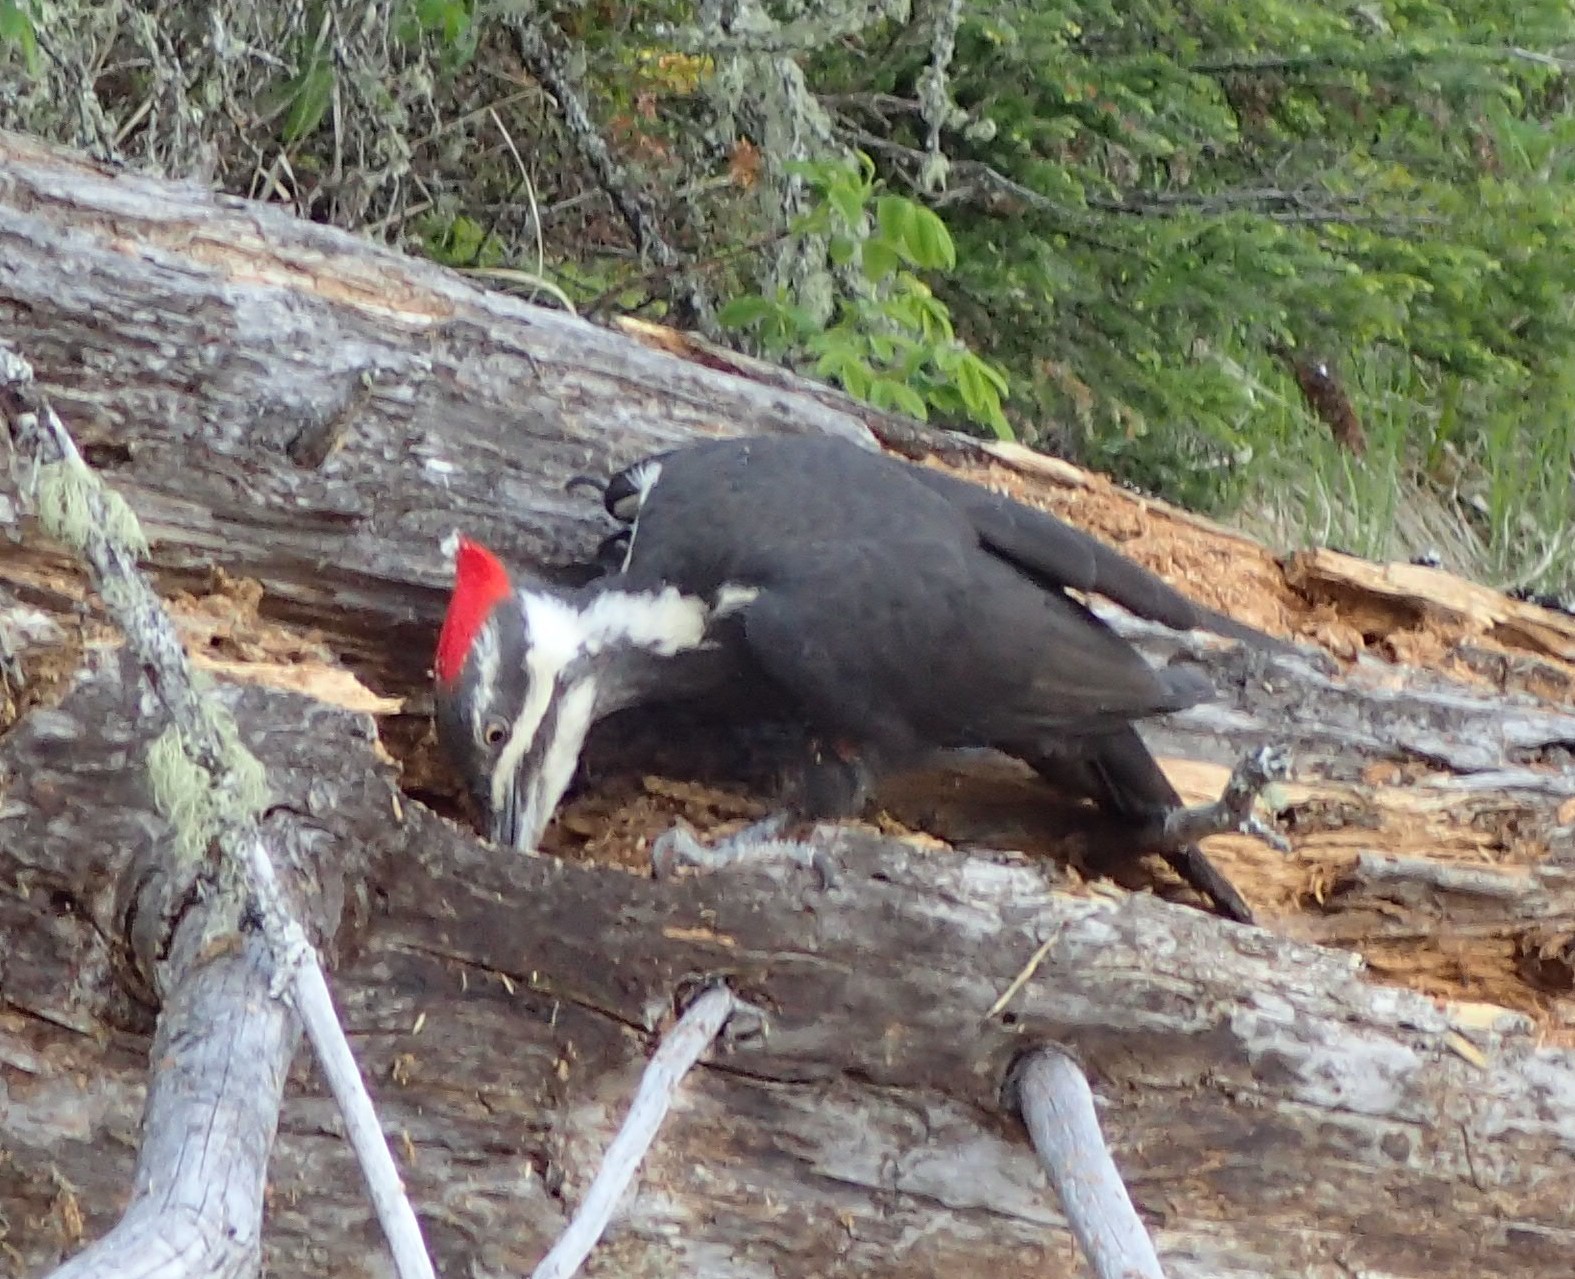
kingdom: Animalia
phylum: Chordata
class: Aves
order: Piciformes
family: Picidae
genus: Dryocopus
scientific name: Dryocopus pileatus
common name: Pileated woodpecker
